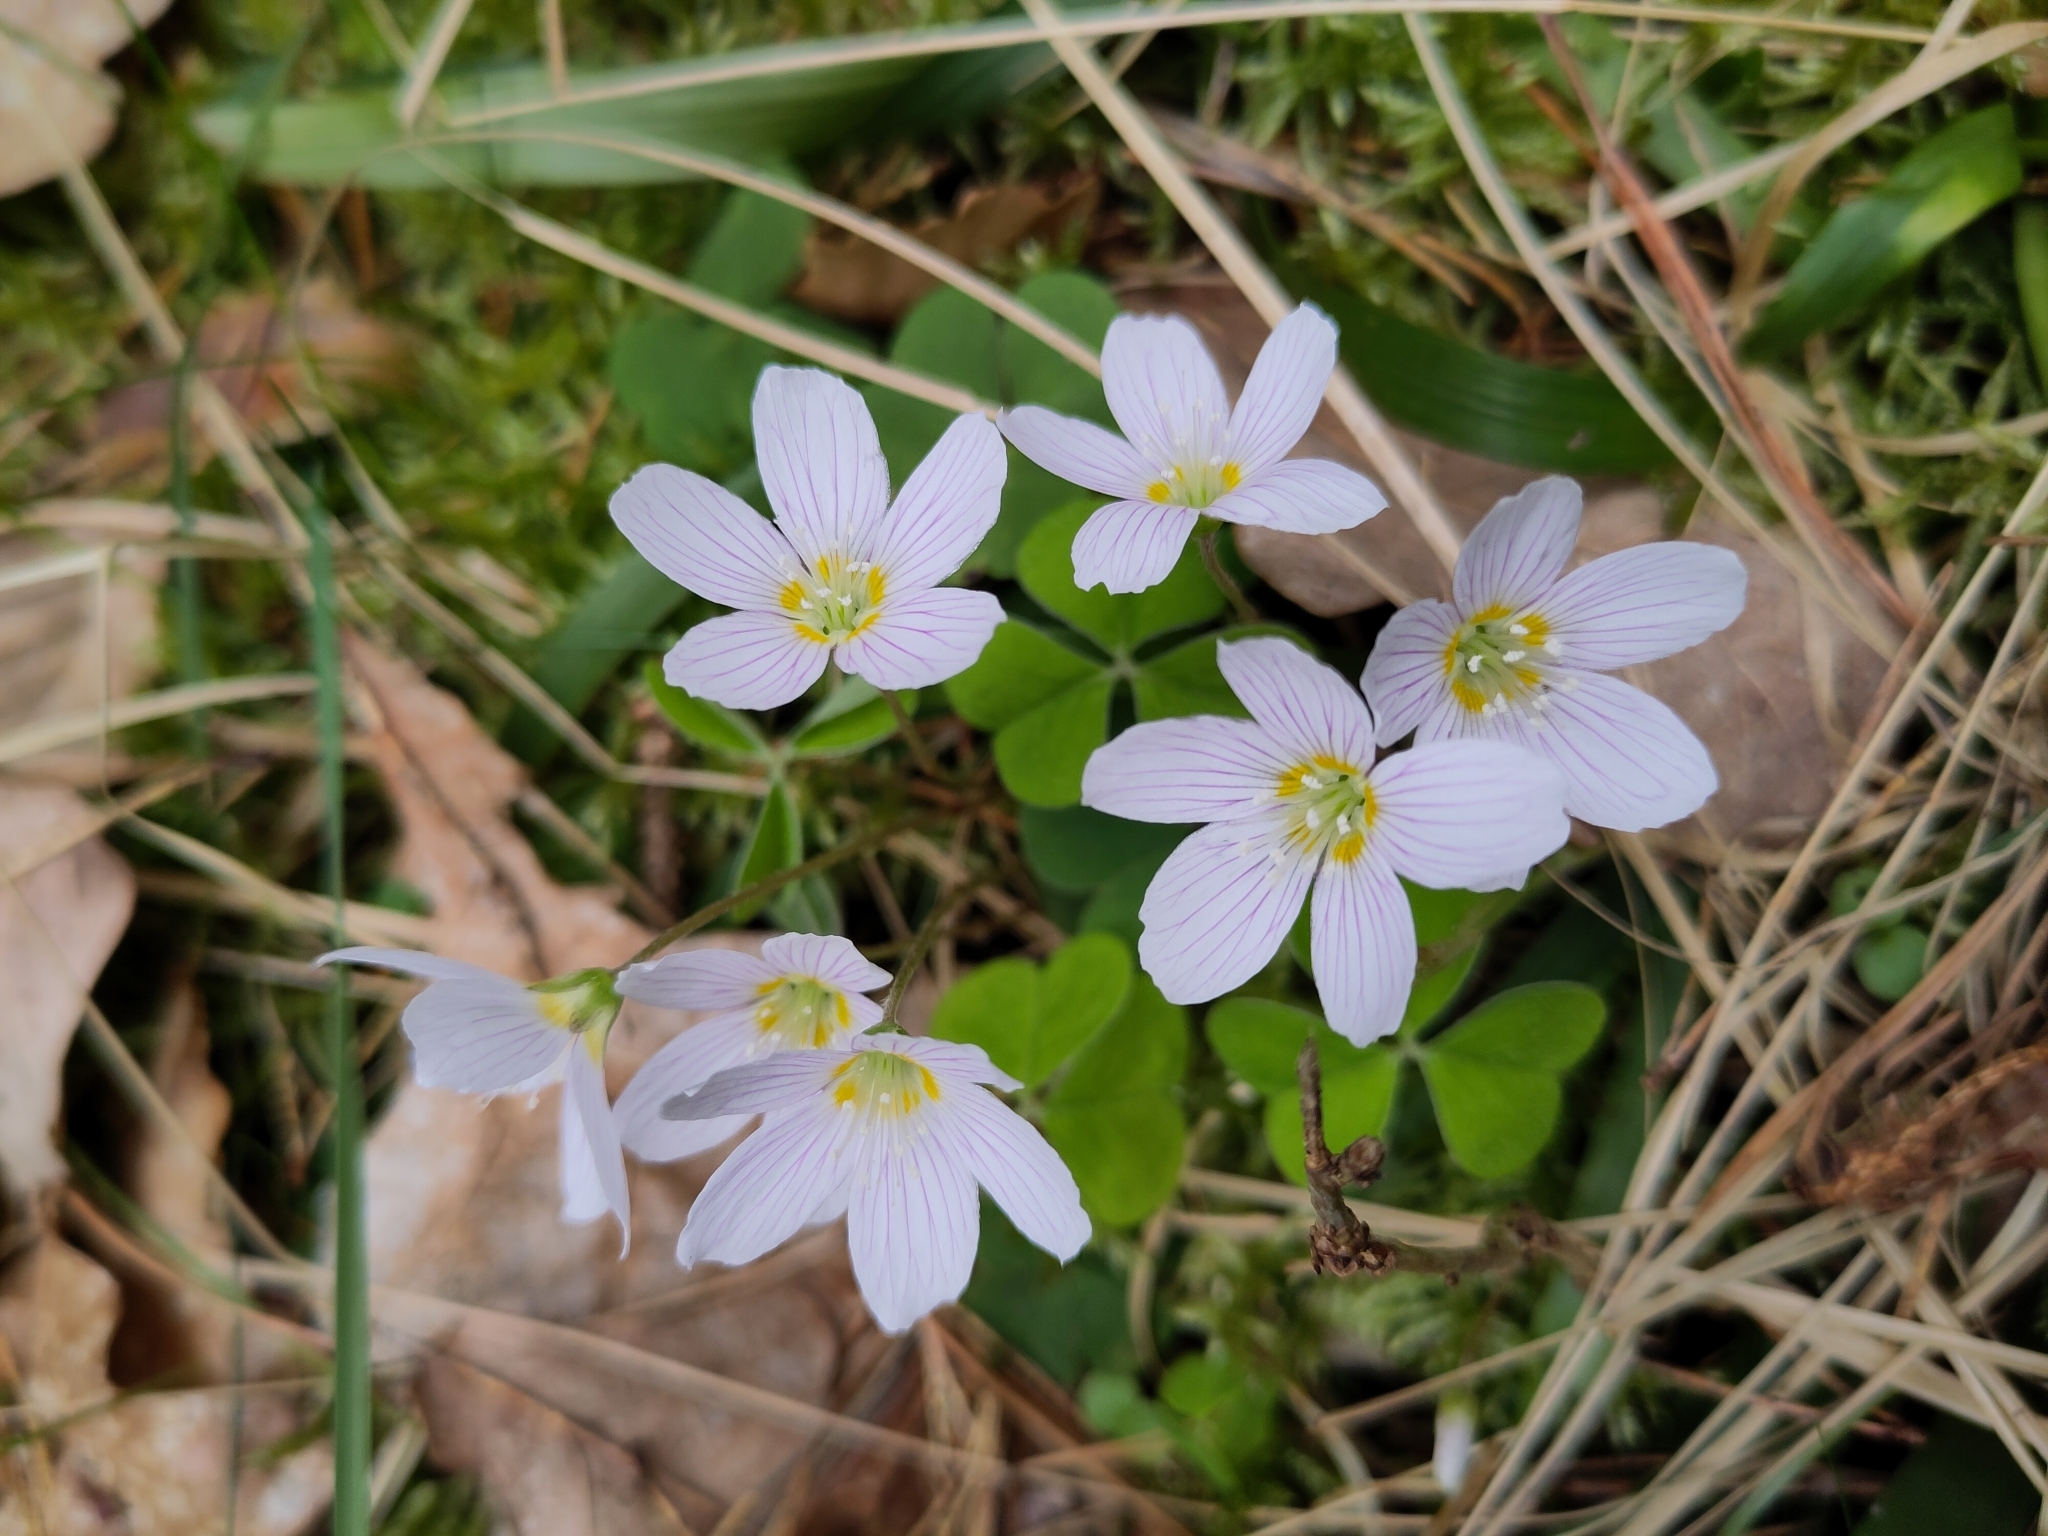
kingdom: Plantae
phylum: Tracheophyta
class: Magnoliopsida
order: Oxalidales
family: Oxalidaceae
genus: Oxalis
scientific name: Oxalis acetosella
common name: Wood-sorrel
